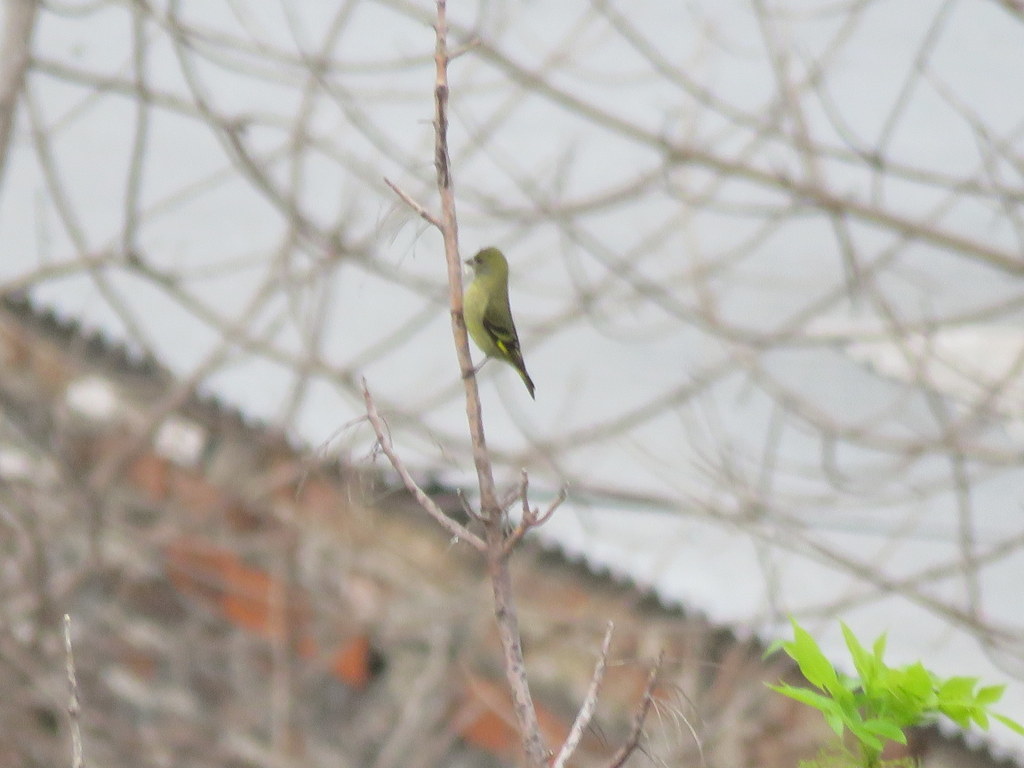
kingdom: Animalia
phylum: Chordata
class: Aves
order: Passeriformes
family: Fringillidae
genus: Spinus
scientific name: Spinus magellanicus
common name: Hooded siskin
